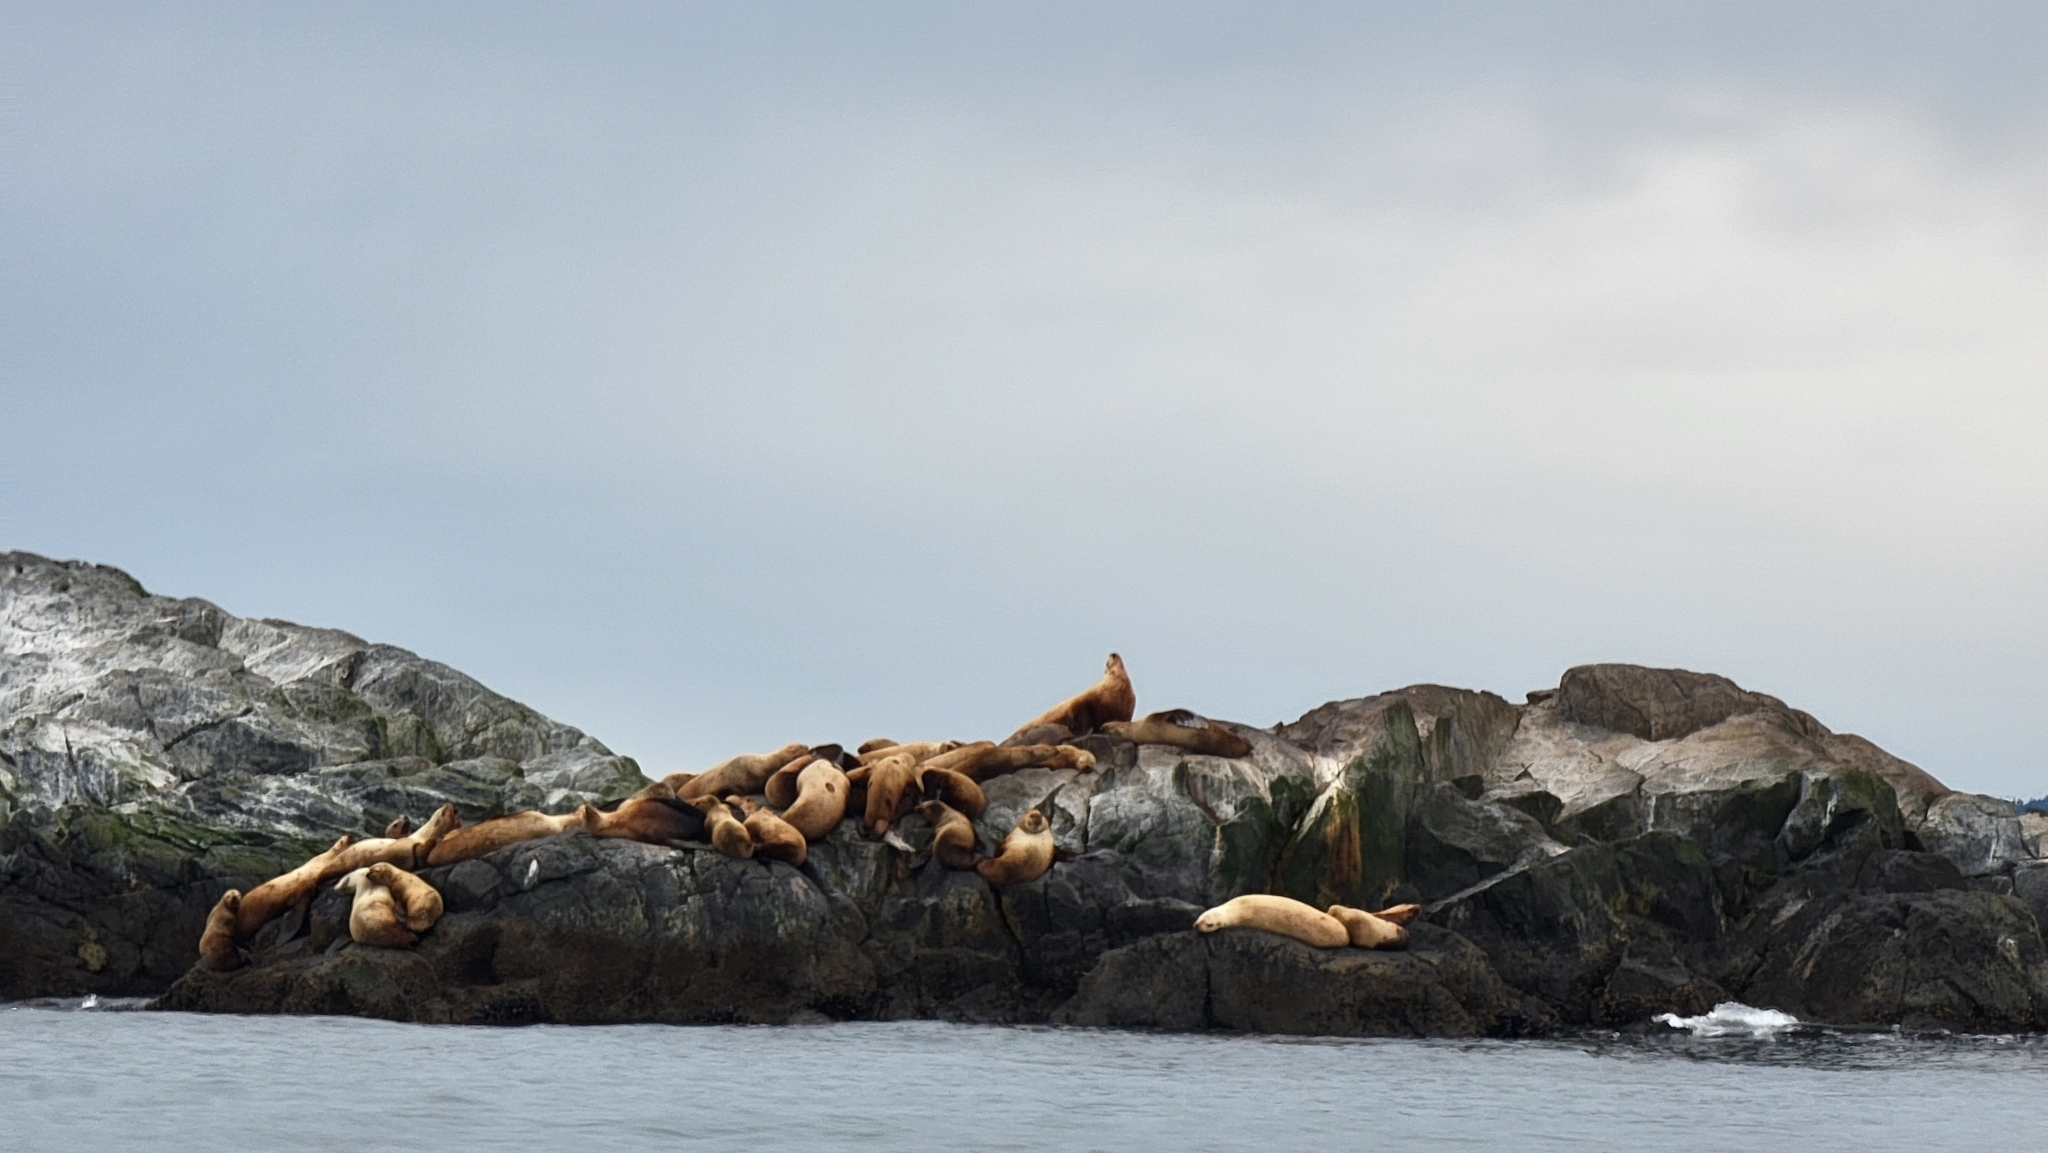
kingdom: Animalia
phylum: Chordata
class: Mammalia
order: Carnivora
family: Otariidae
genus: Eumetopias
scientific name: Eumetopias jubatus
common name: Steller sea lion
